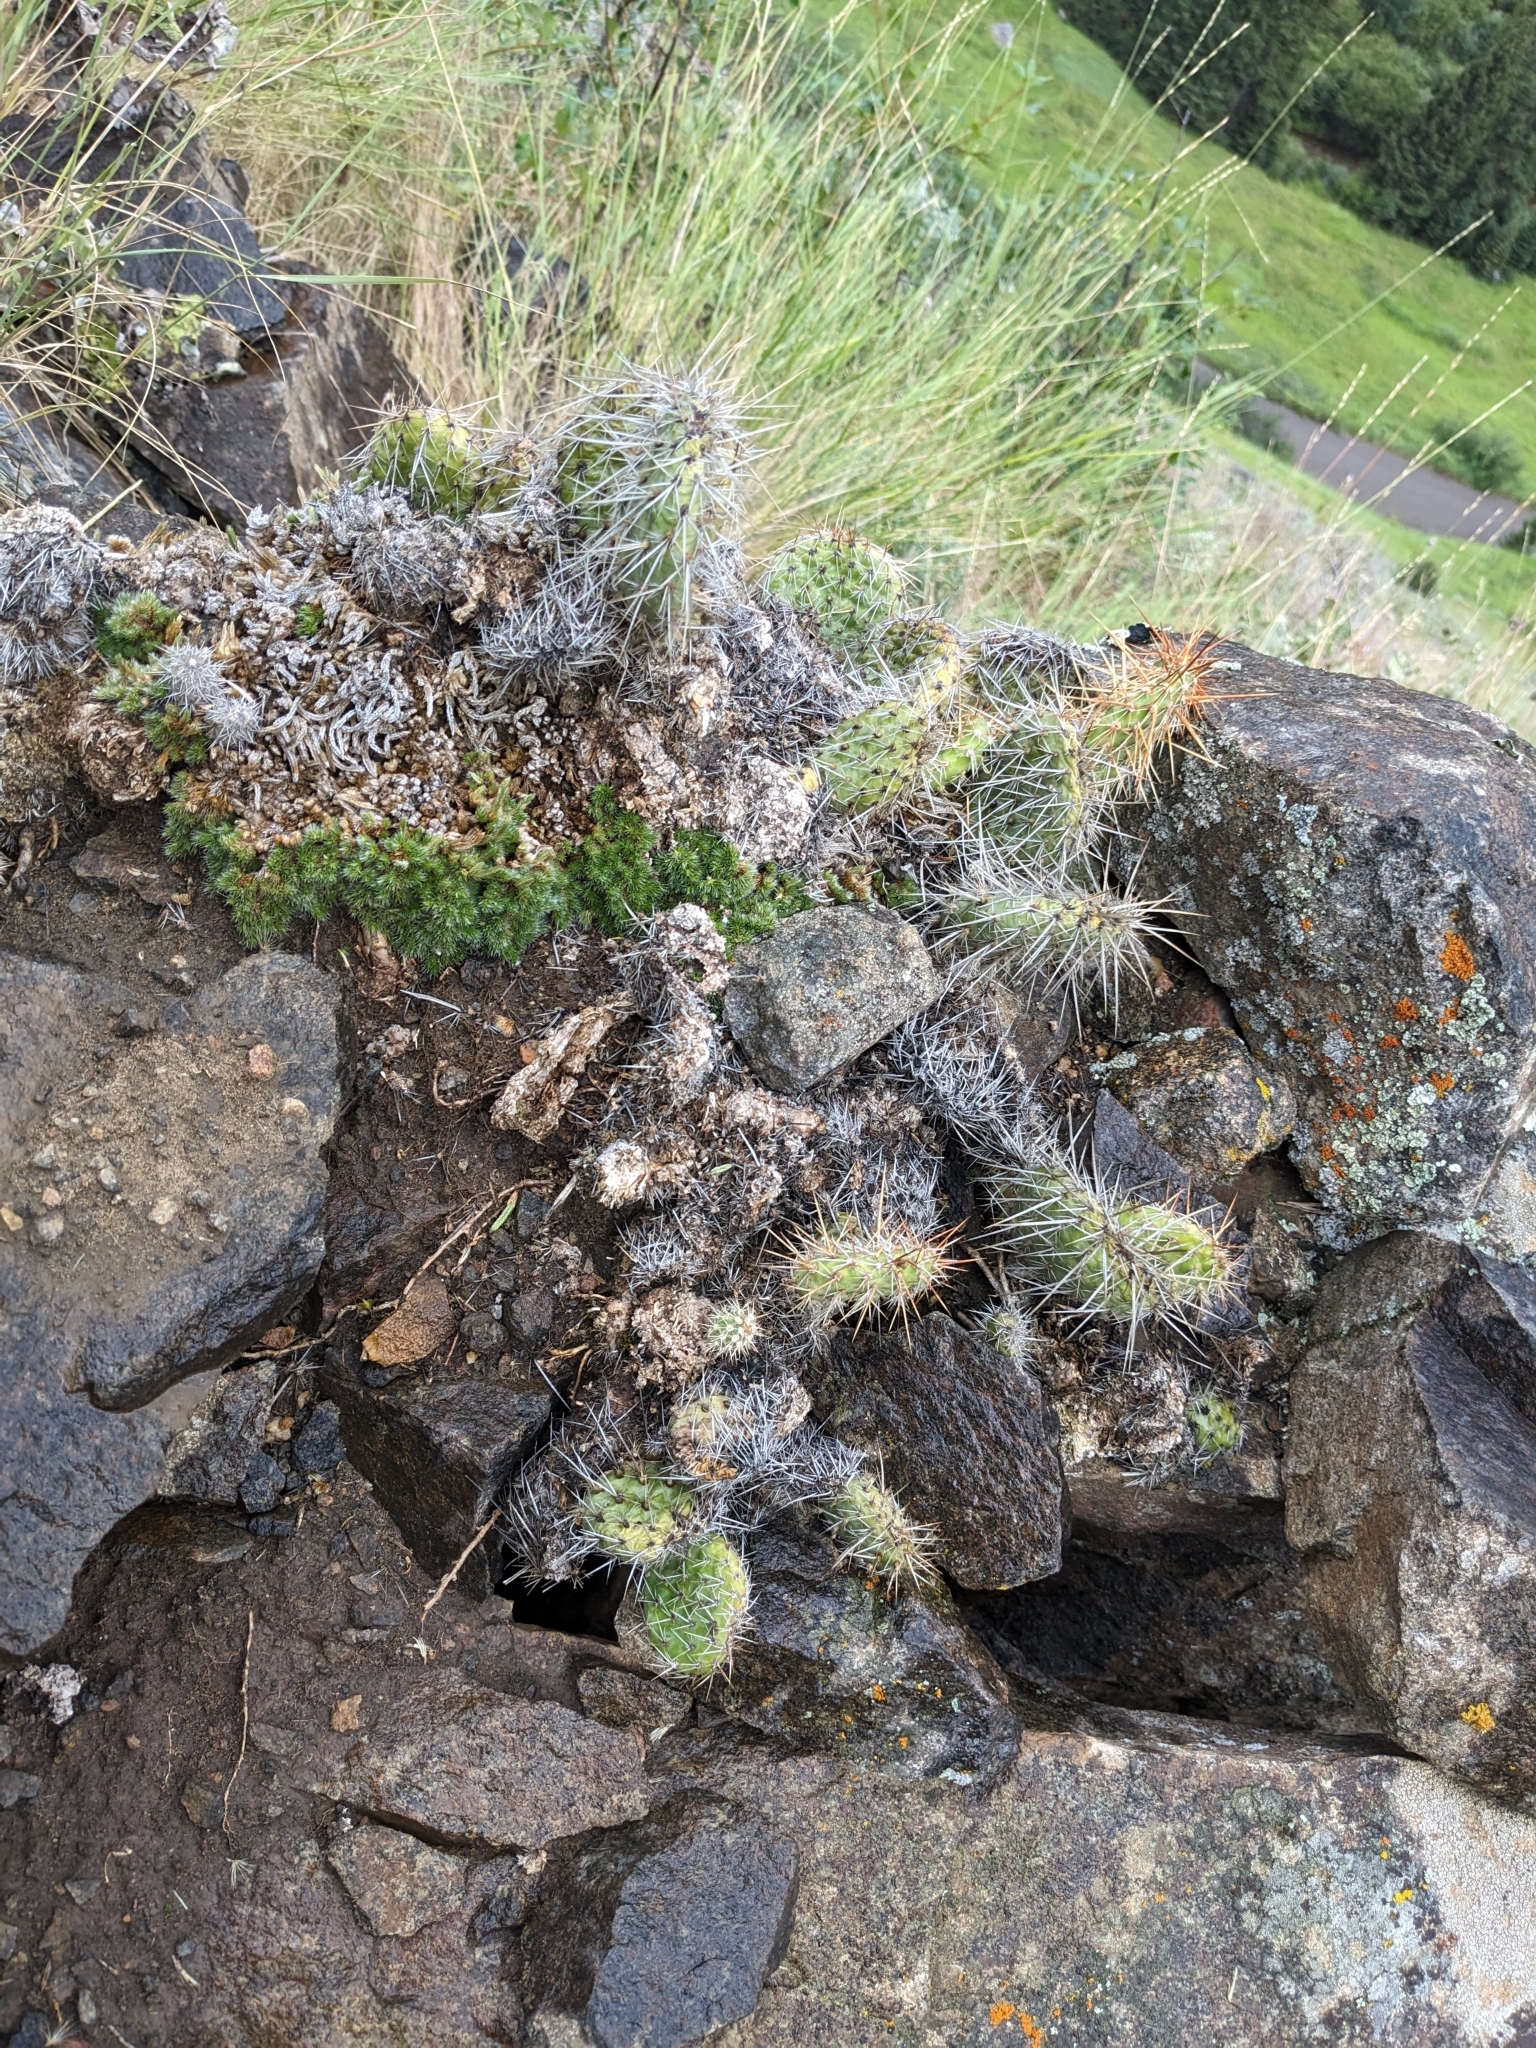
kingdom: Plantae
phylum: Tracheophyta
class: Magnoliopsida
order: Caryophyllales
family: Cactaceae
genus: Opuntia
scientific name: Opuntia polyacantha
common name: Plains prickly-pear
